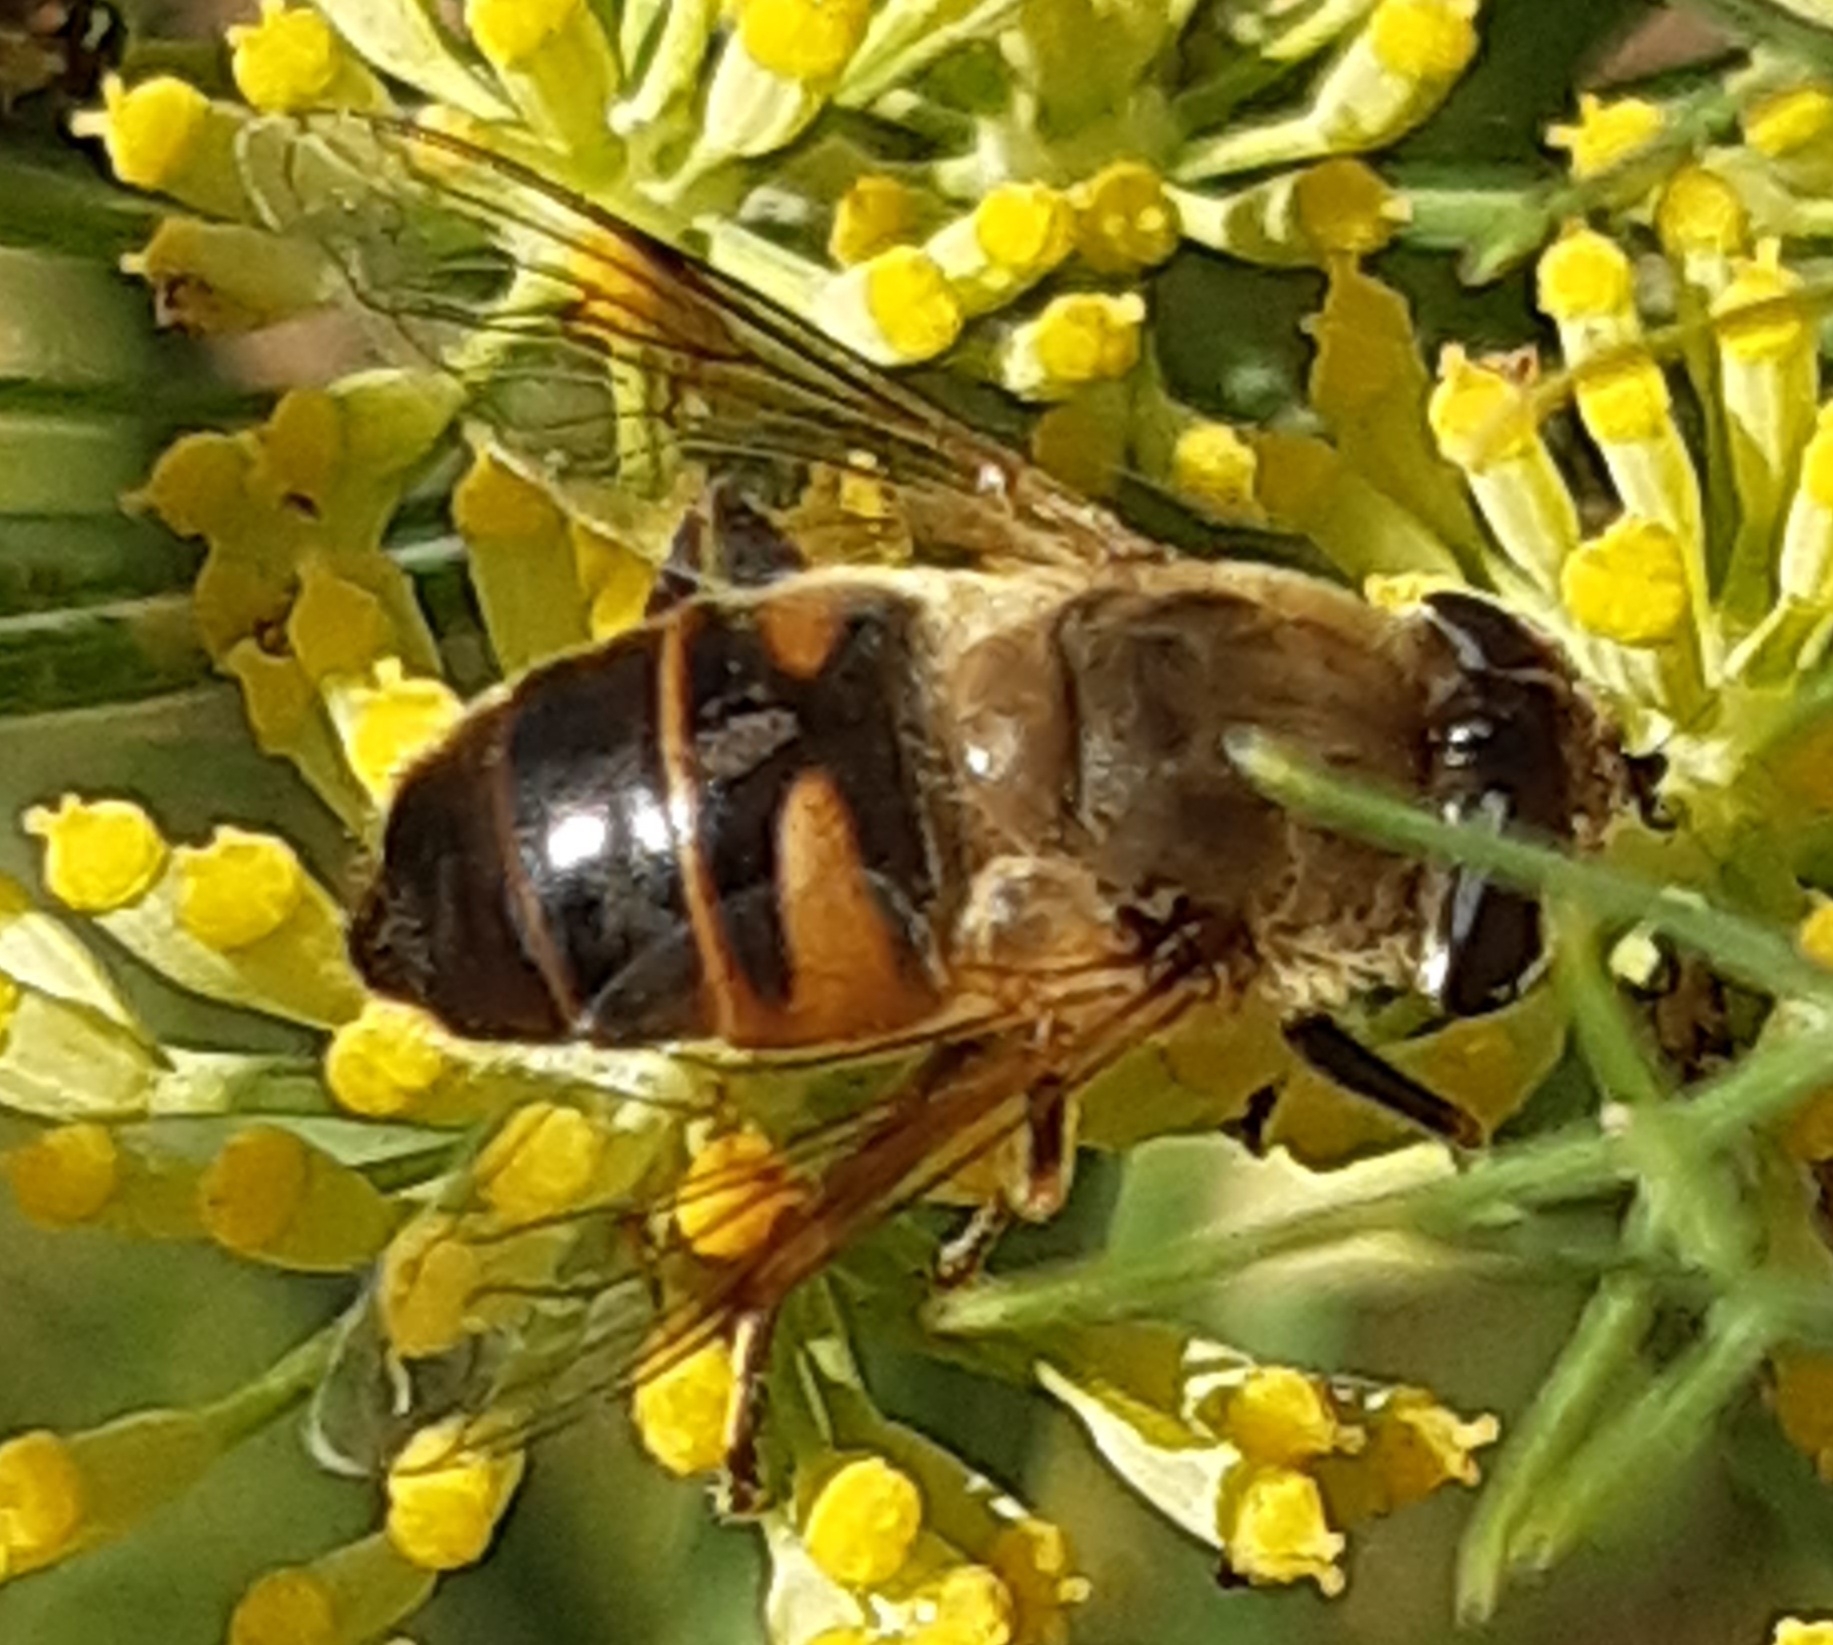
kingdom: Animalia
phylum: Arthropoda
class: Insecta
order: Diptera
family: Syrphidae
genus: Eristalis
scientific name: Eristalis tenax
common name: Drone fly
